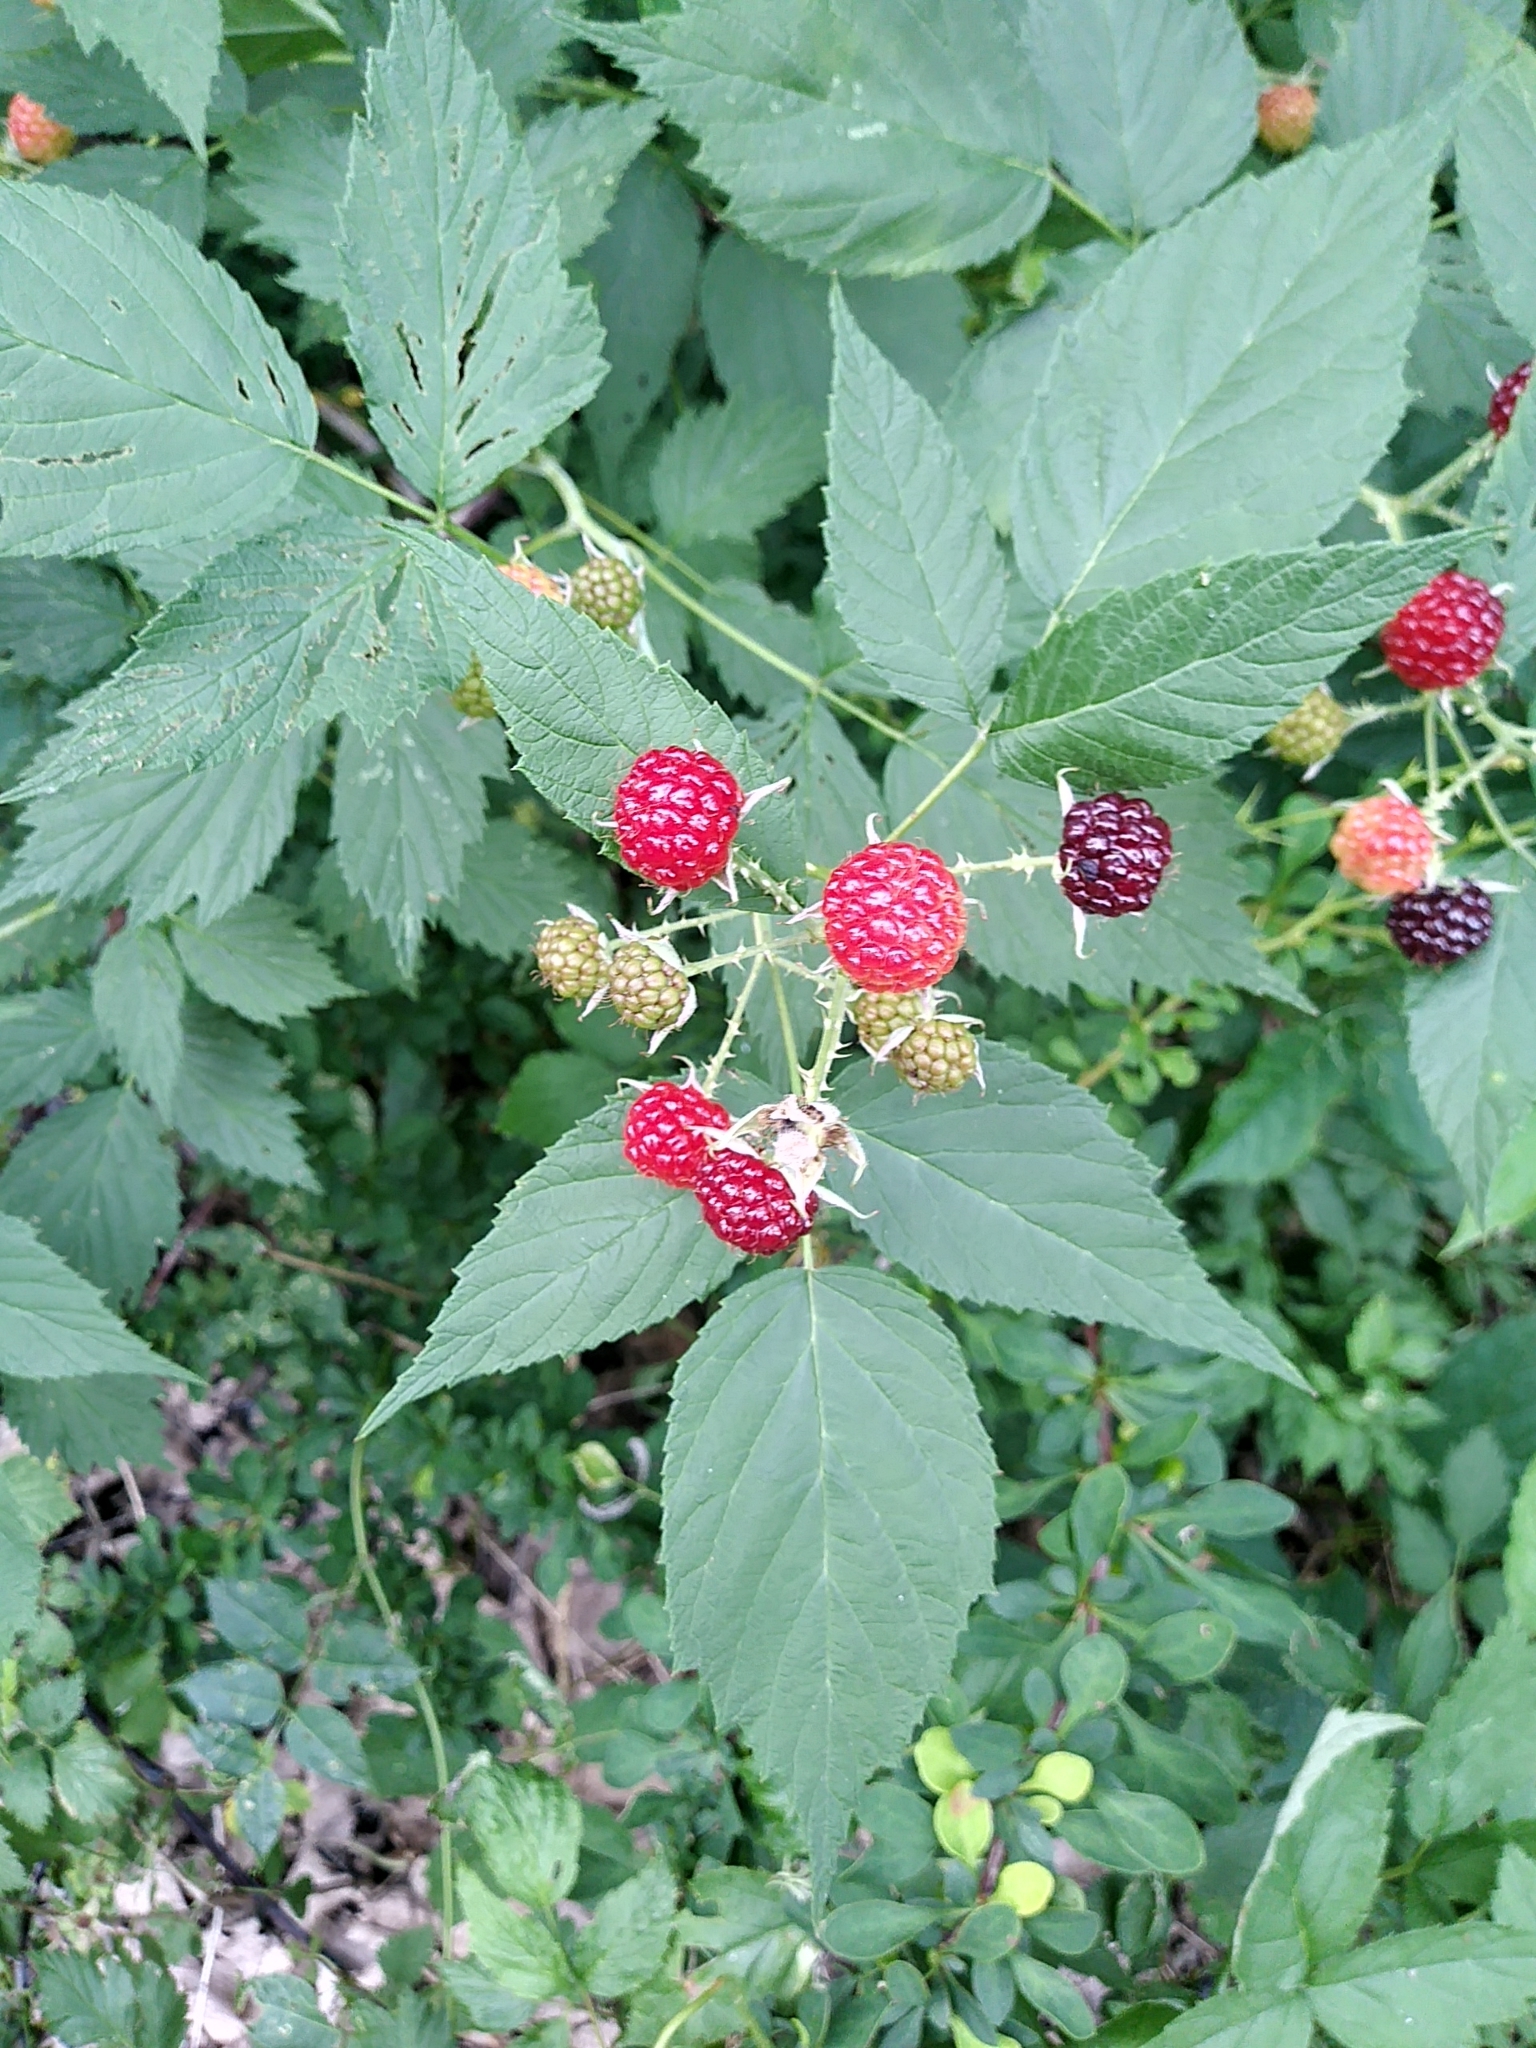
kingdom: Plantae
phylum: Tracheophyta
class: Magnoliopsida
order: Rosales
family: Rosaceae
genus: Rubus
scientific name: Rubus occidentalis
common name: Black raspberry
